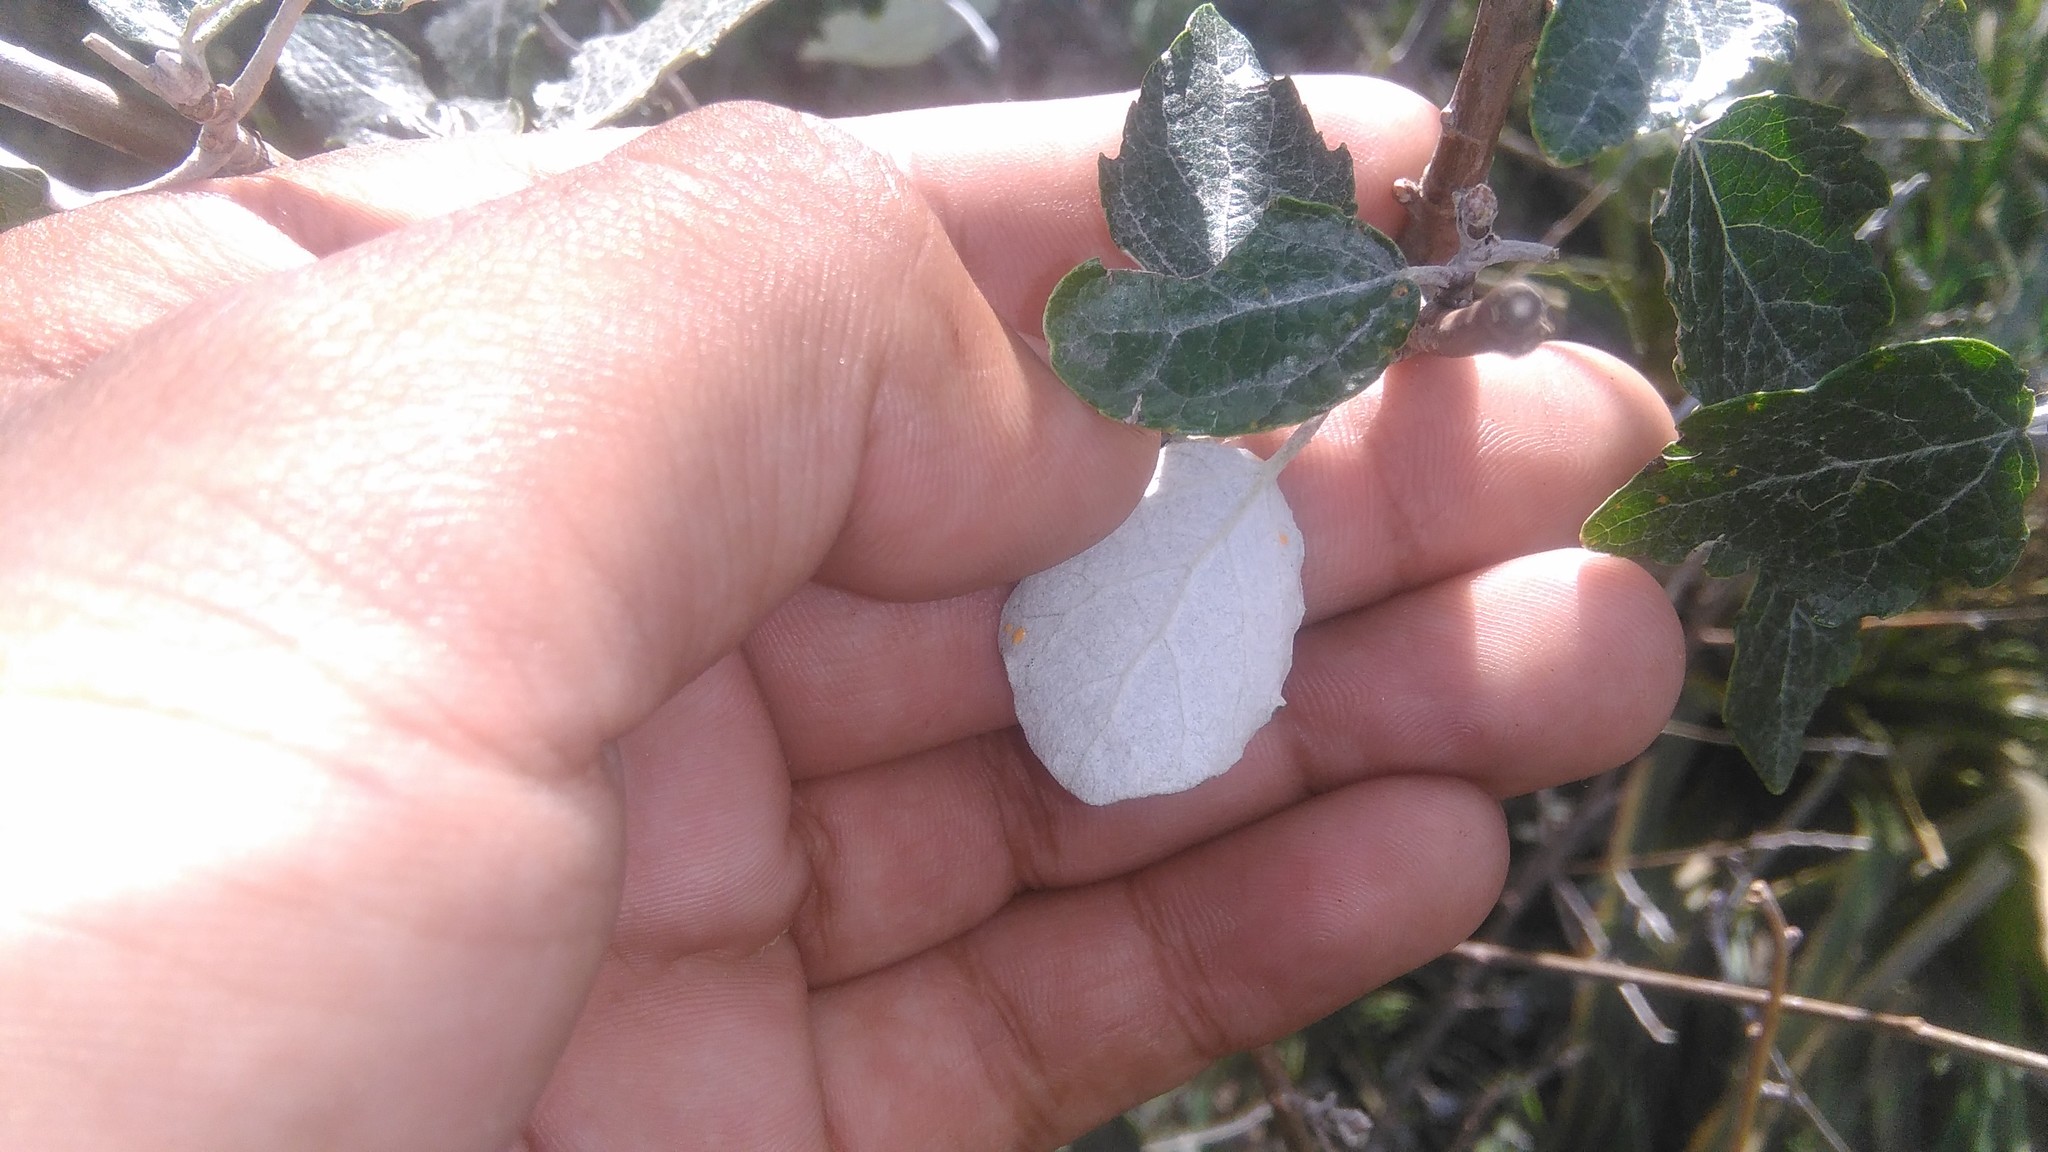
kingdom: Plantae
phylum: Tracheophyta
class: Magnoliopsida
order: Malpighiales
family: Salicaceae
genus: Populus
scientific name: Populus alba
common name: White poplar
